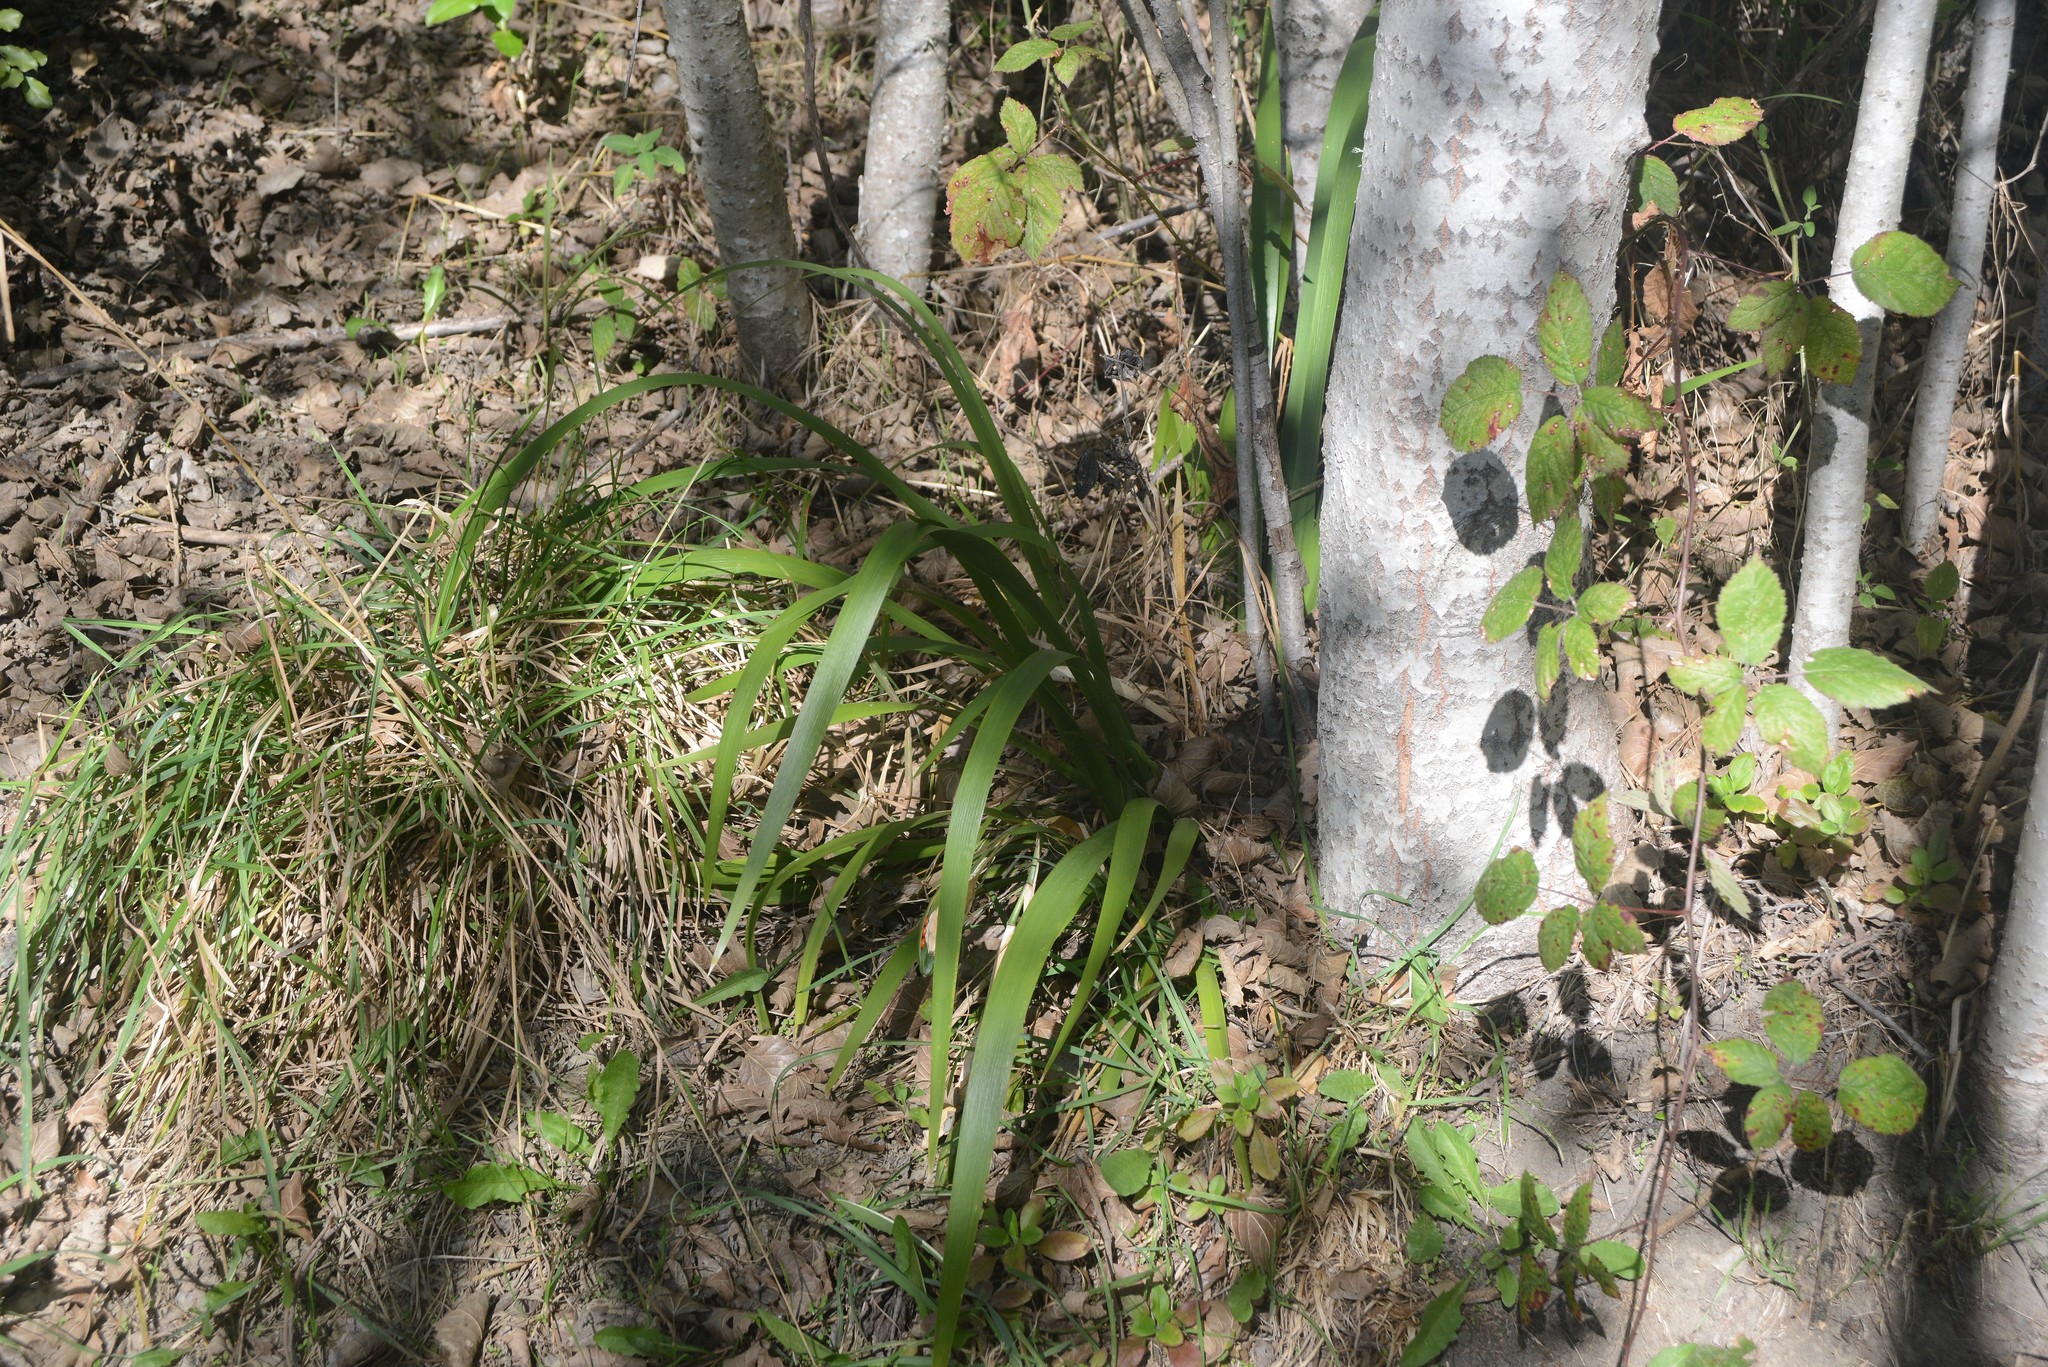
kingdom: Plantae
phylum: Tracheophyta
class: Liliopsida
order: Asparagales
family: Iridaceae
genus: Iris
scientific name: Iris foetidissima
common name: Stinking iris
